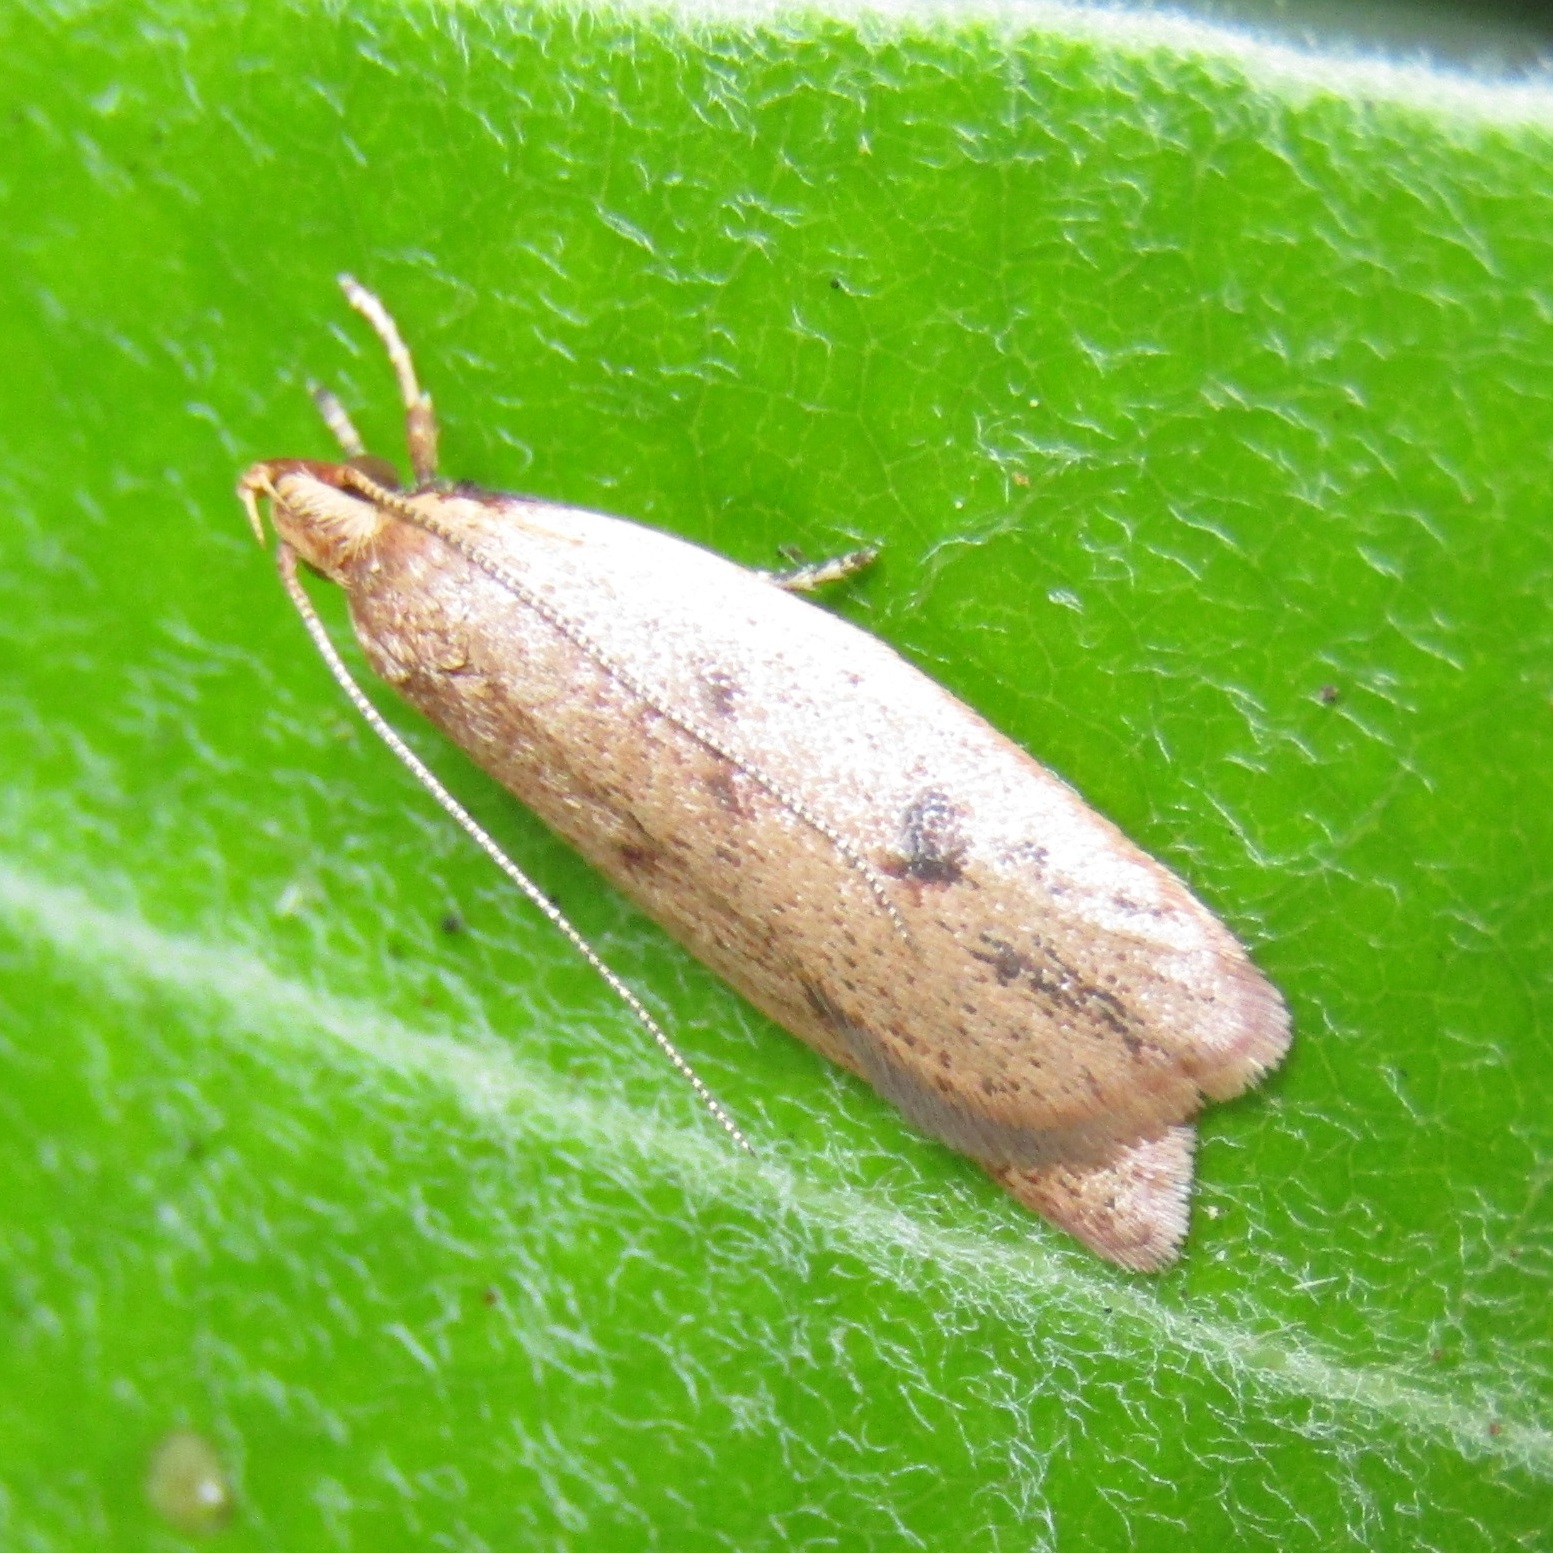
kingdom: Animalia
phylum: Arthropoda
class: Insecta
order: Lepidoptera
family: Oecophoridae
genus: Gymnobathra
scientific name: Gymnobathra sarcoxantha
